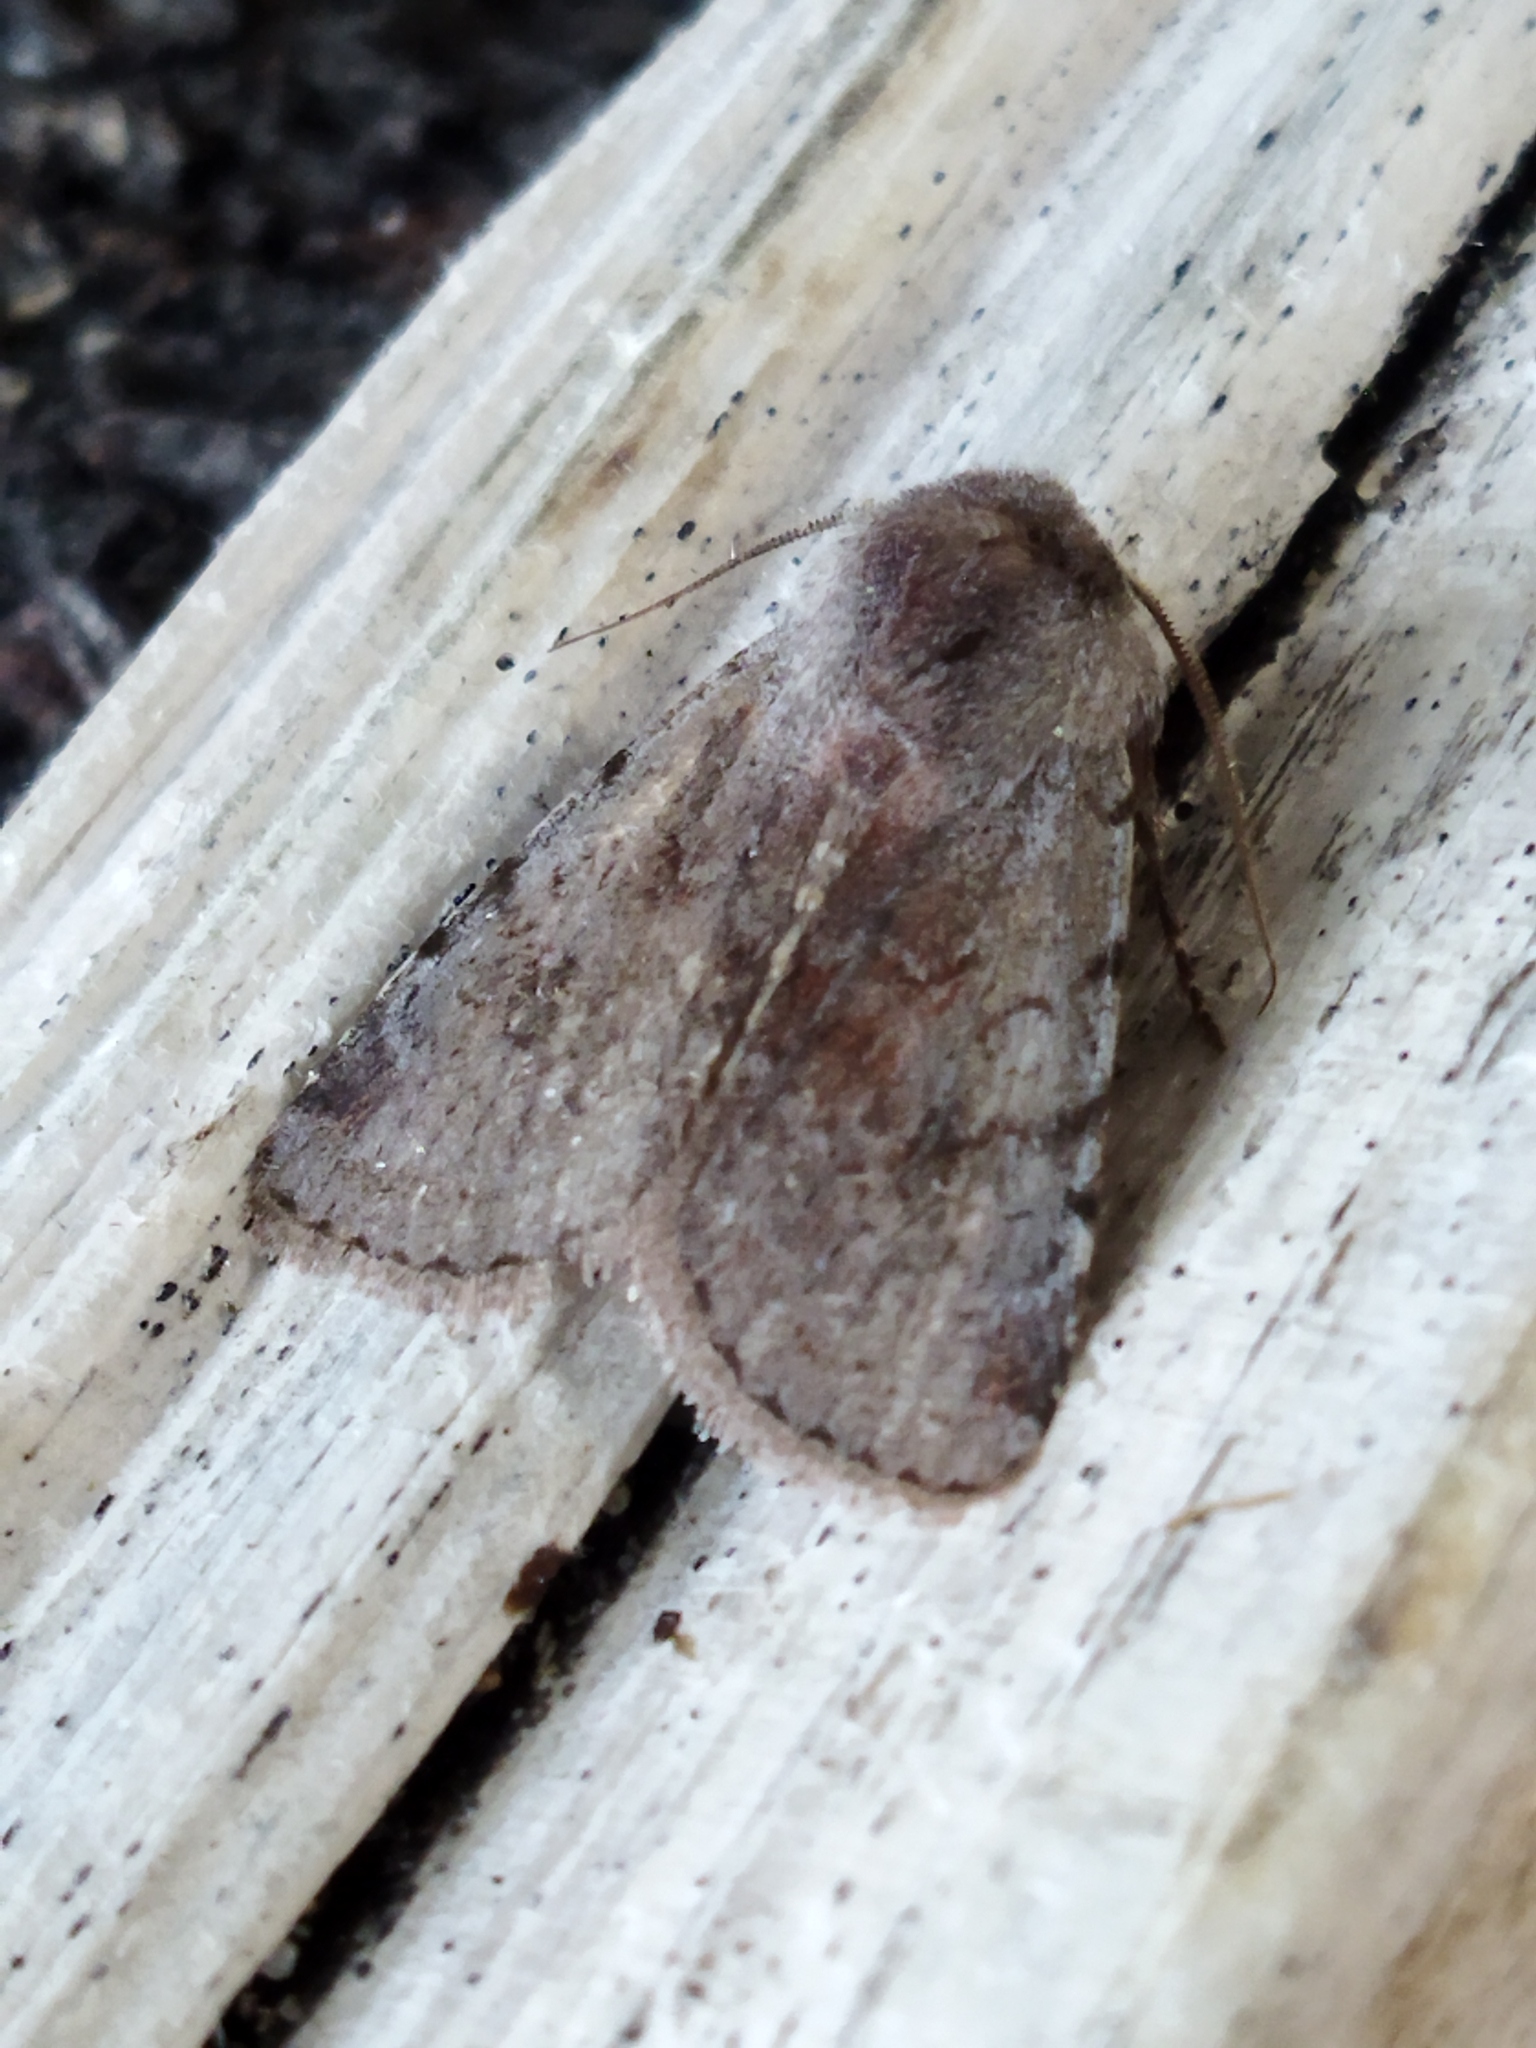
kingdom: Animalia
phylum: Arthropoda
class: Insecta
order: Lepidoptera
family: Noctuidae
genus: Cerastis
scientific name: Cerastis rubricosa
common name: Red chestnut
